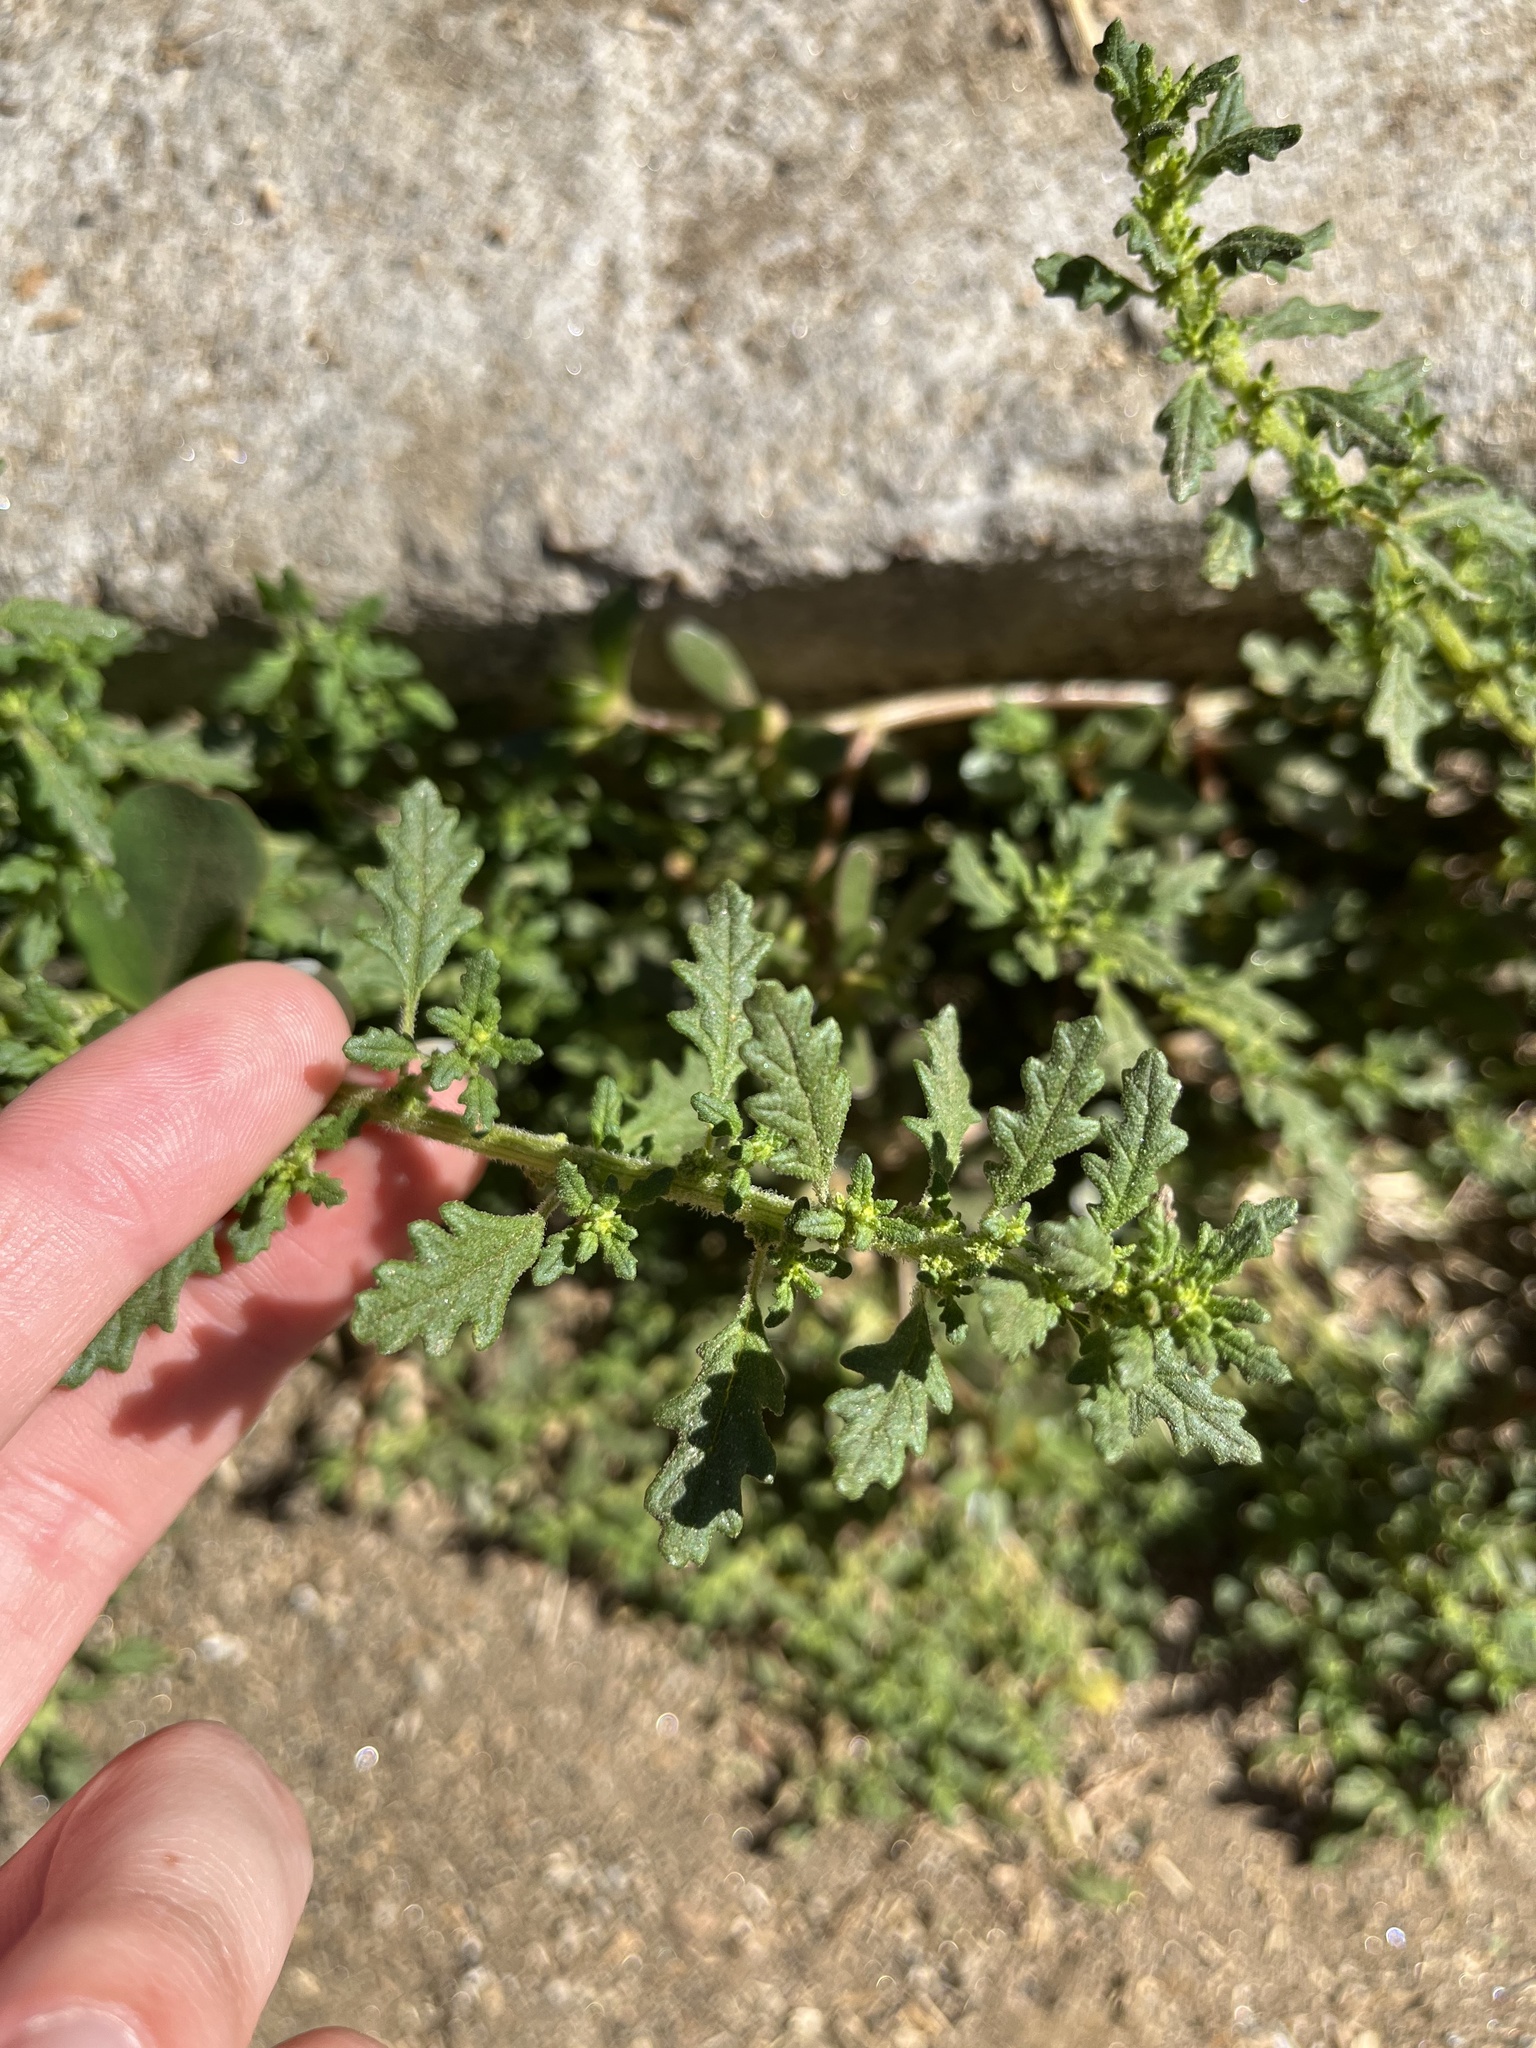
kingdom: Plantae
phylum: Tracheophyta
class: Magnoliopsida
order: Caryophyllales
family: Amaranthaceae
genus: Dysphania
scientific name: Dysphania pumilio
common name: Clammy goosefoot
